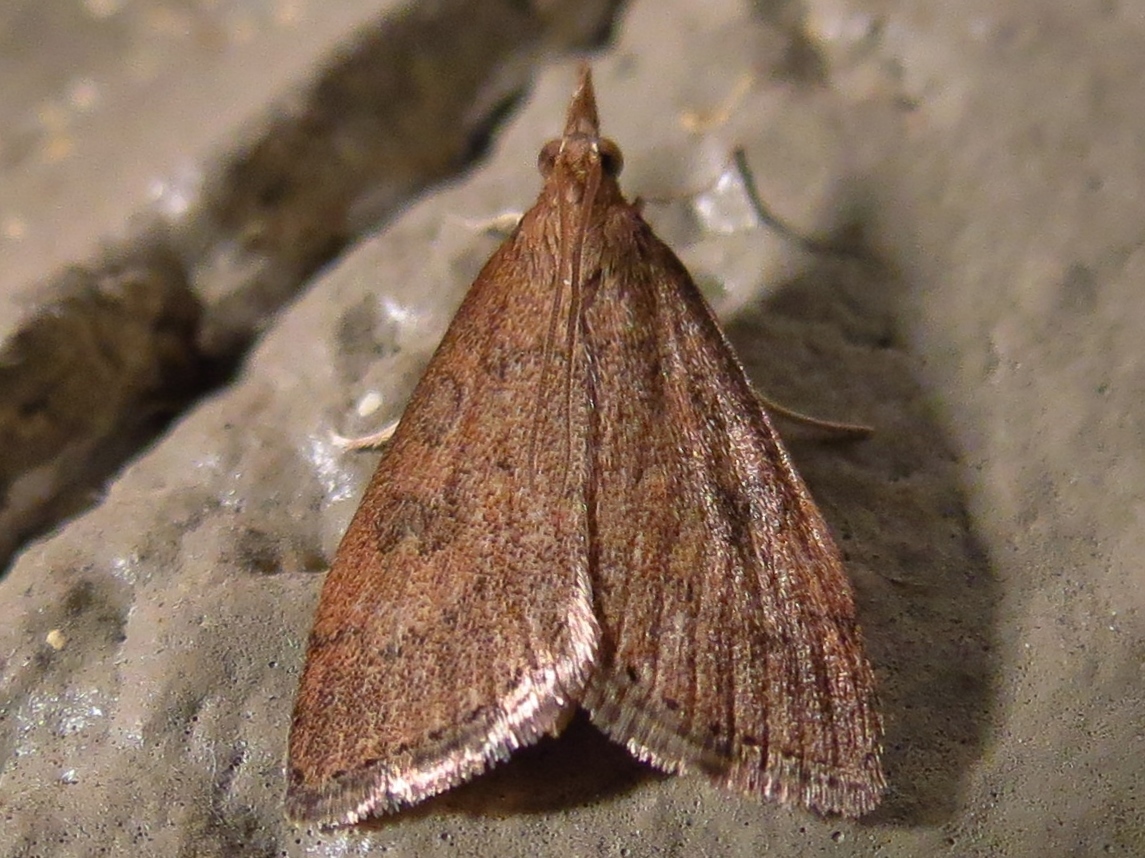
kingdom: Animalia
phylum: Arthropoda
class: Insecta
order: Lepidoptera
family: Crambidae
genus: Udea
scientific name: Udea rubigalis
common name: Celery leaftier moth
